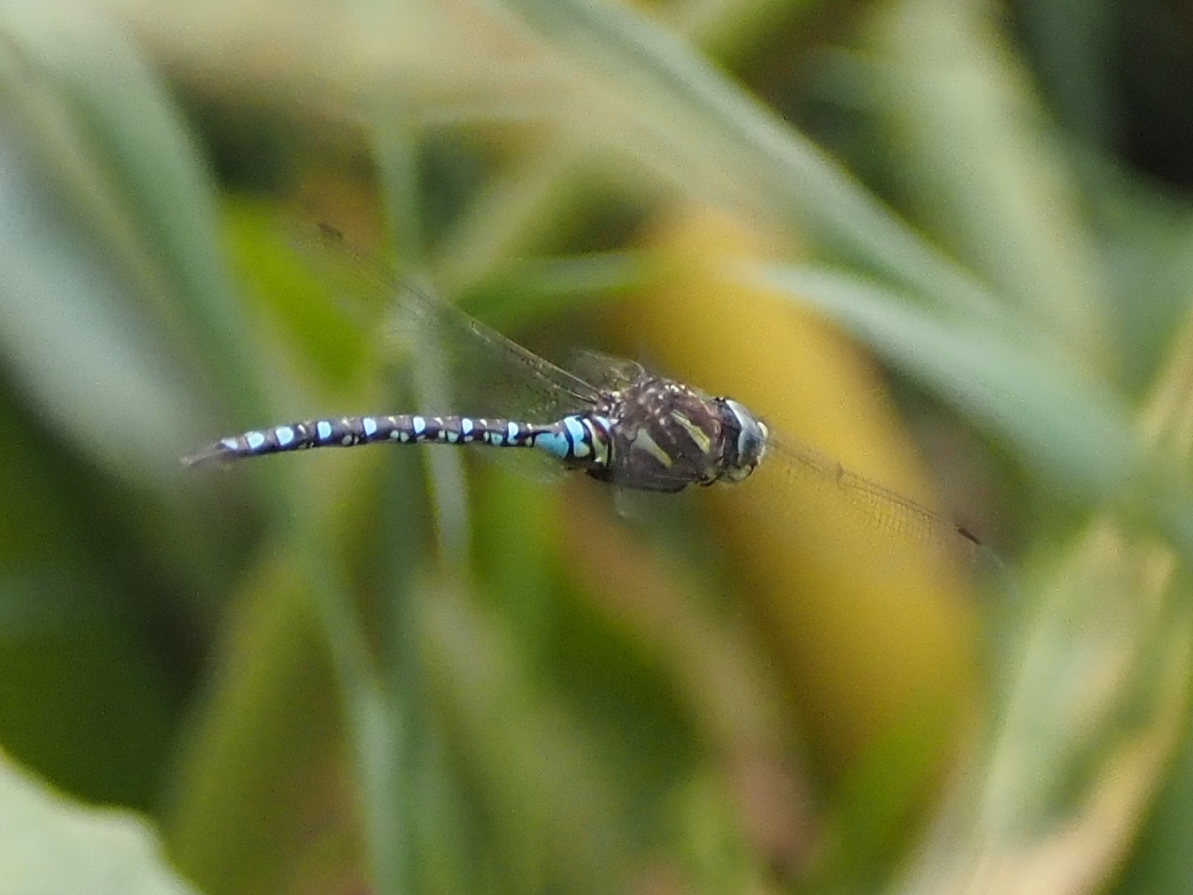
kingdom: Animalia
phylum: Arthropoda
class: Insecta
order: Odonata
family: Aeshnidae
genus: Aeshna
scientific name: Aeshna palmata
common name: Paddle-tailed darner
